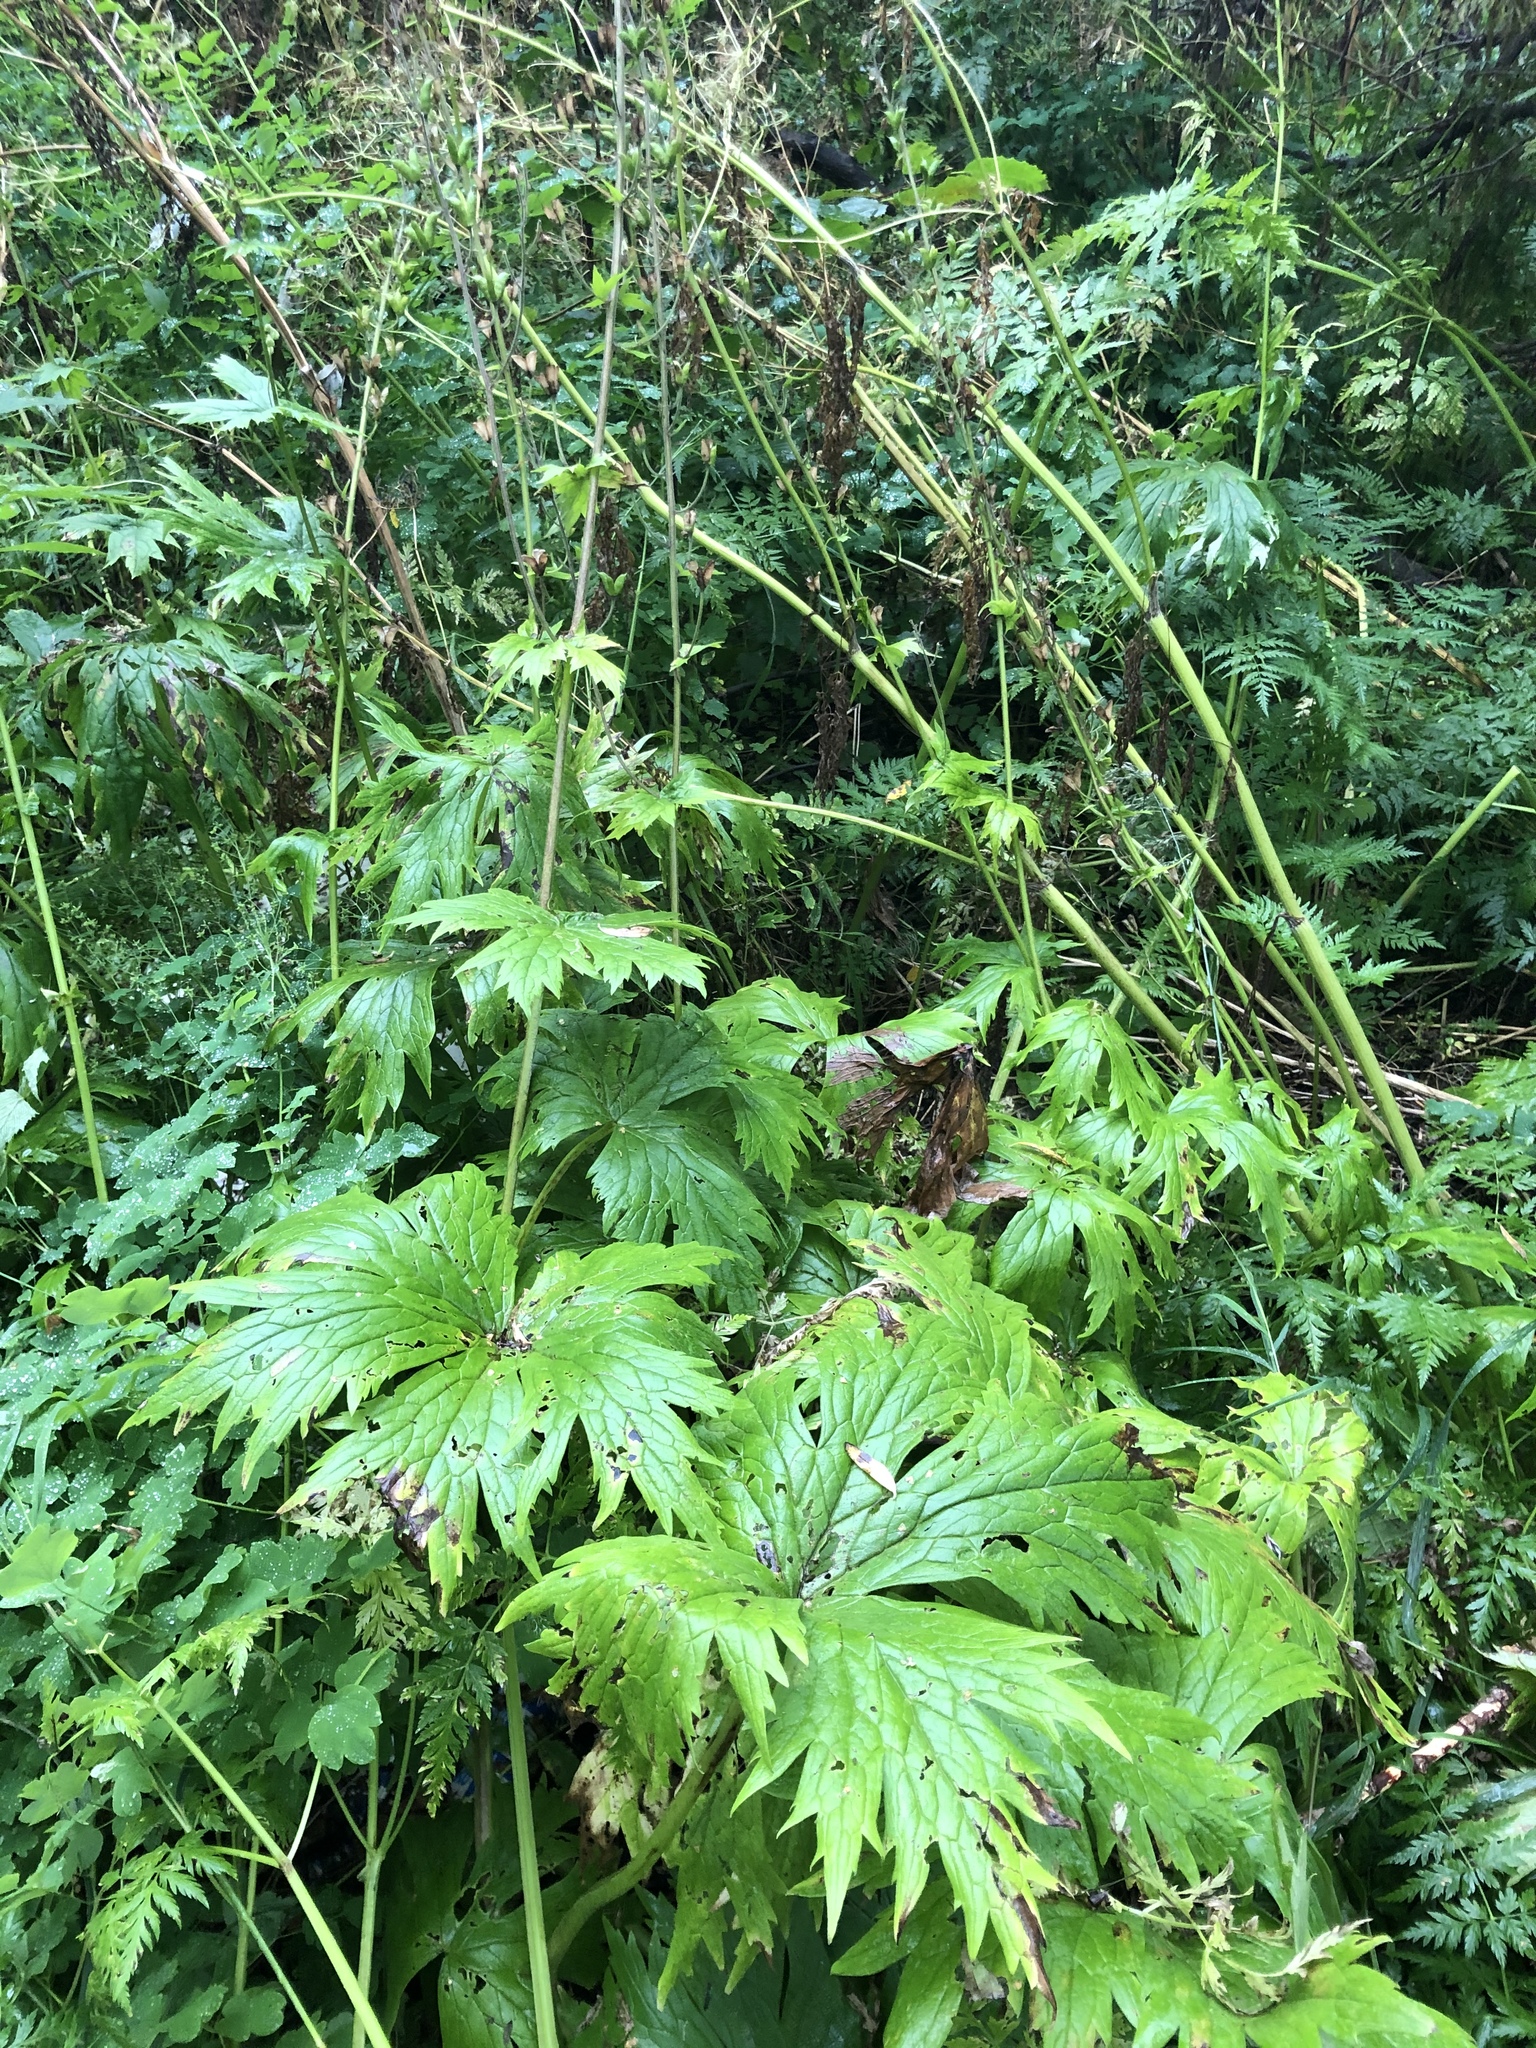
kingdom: Plantae
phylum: Tracheophyta
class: Magnoliopsida
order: Ranunculales
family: Ranunculaceae
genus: Aconitum
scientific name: Aconitum septentrionale
